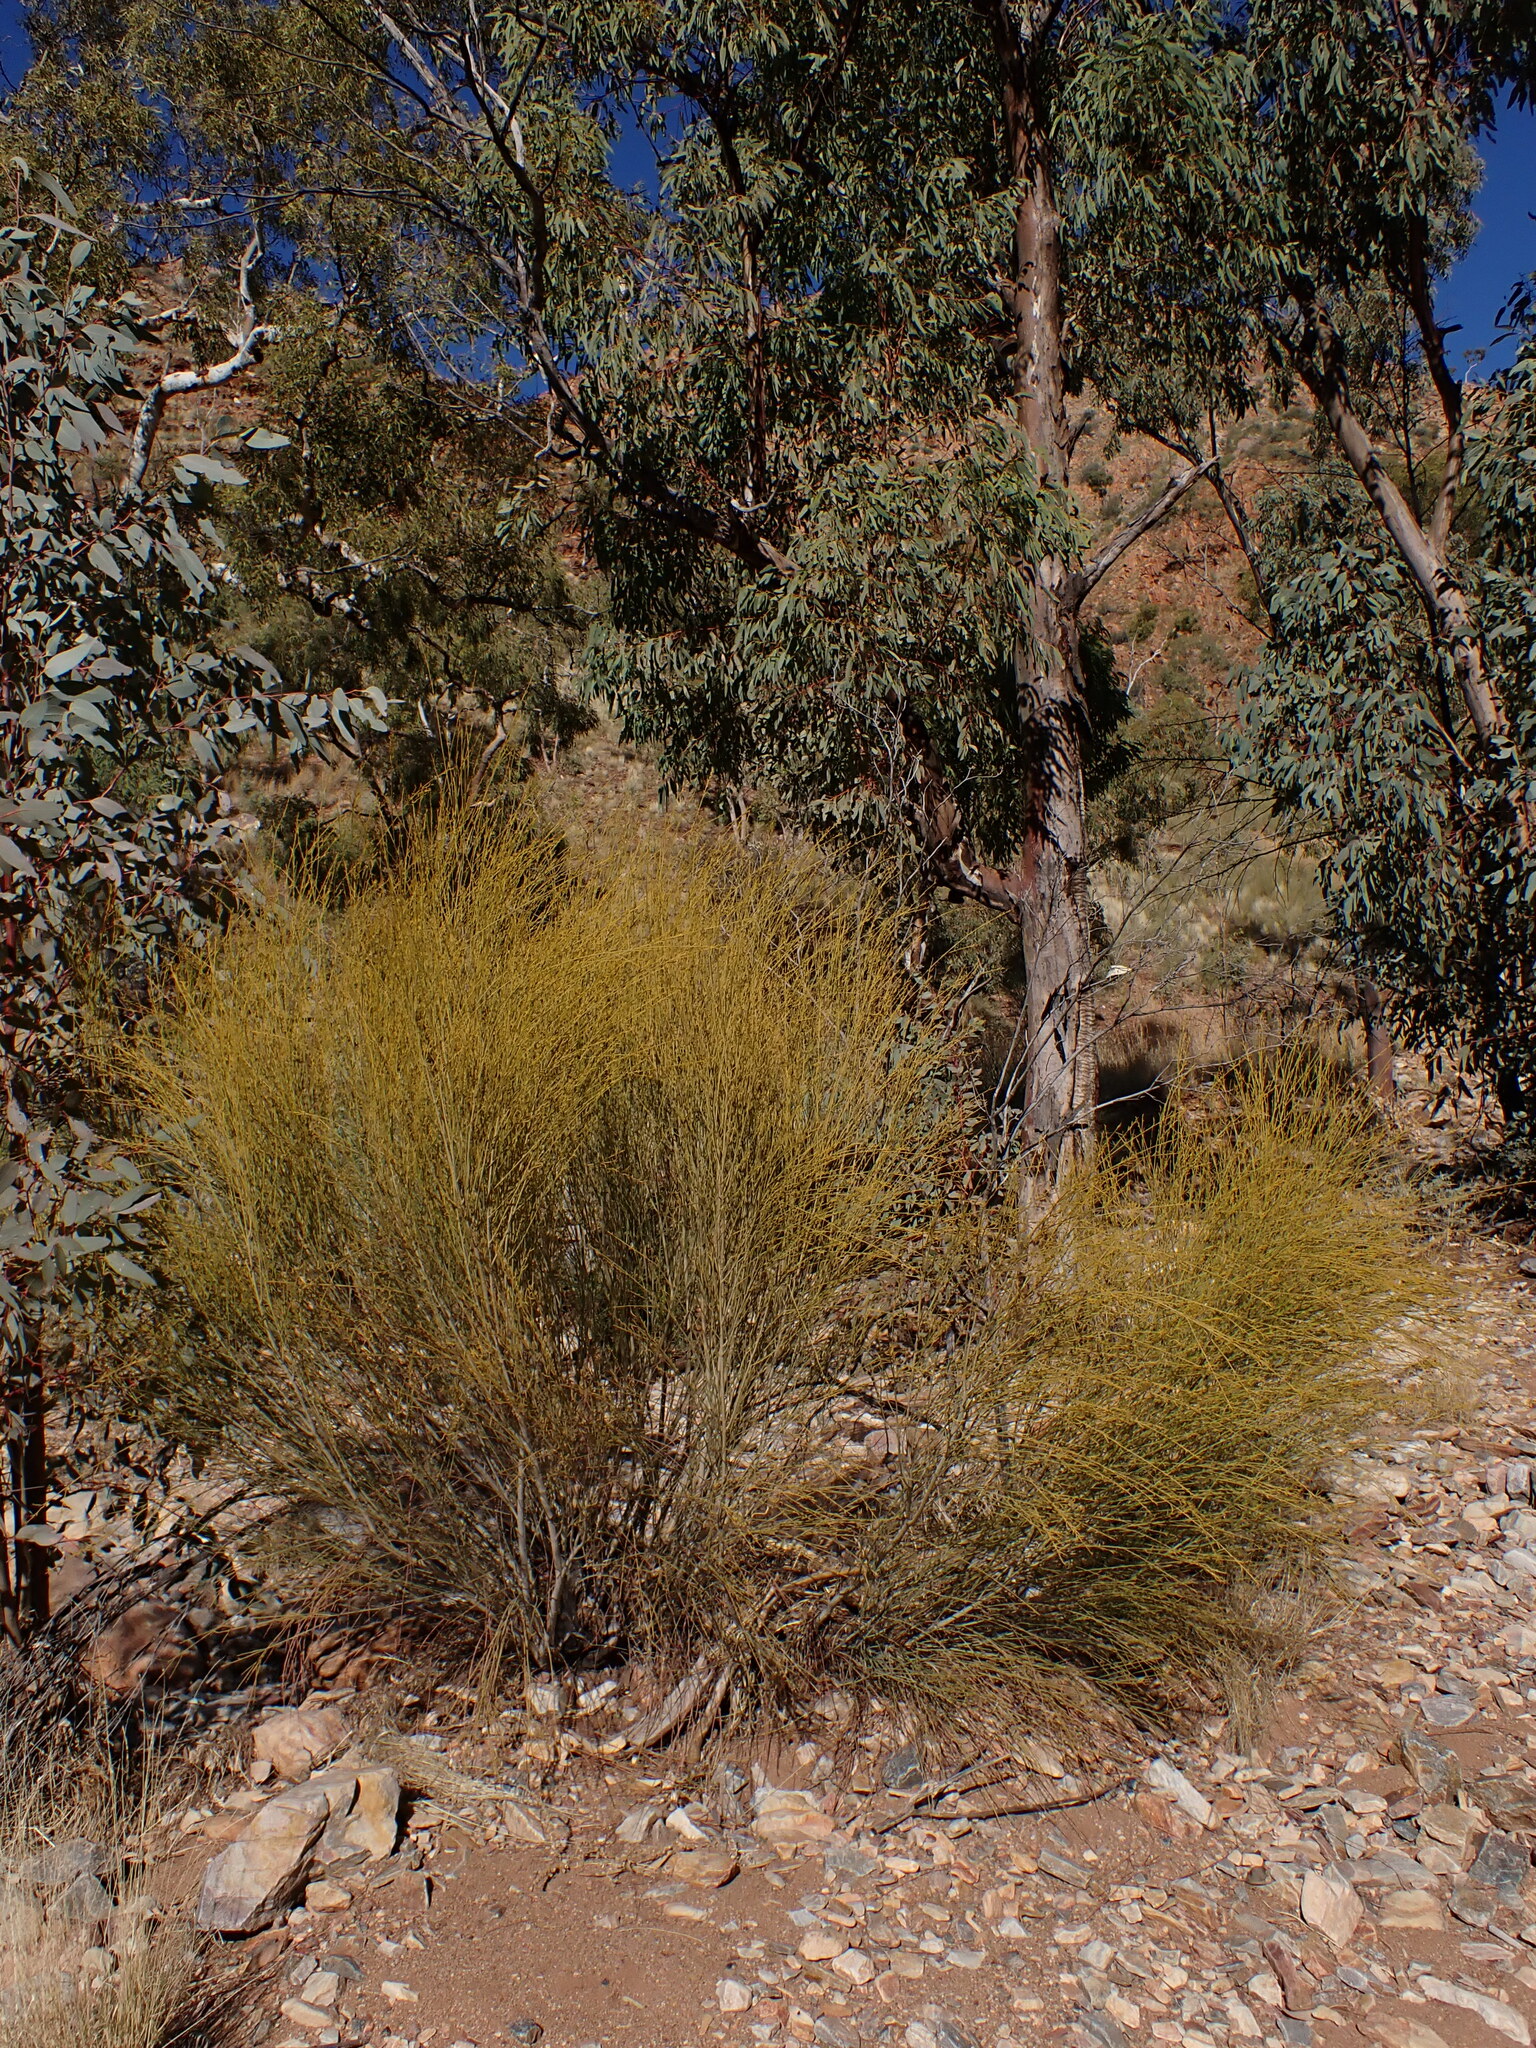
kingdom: Plantae
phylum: Tracheophyta
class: Magnoliopsida
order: Santalales
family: Santalaceae
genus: Exocarpos
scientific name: Exocarpos sparteus
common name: Broom ballart
